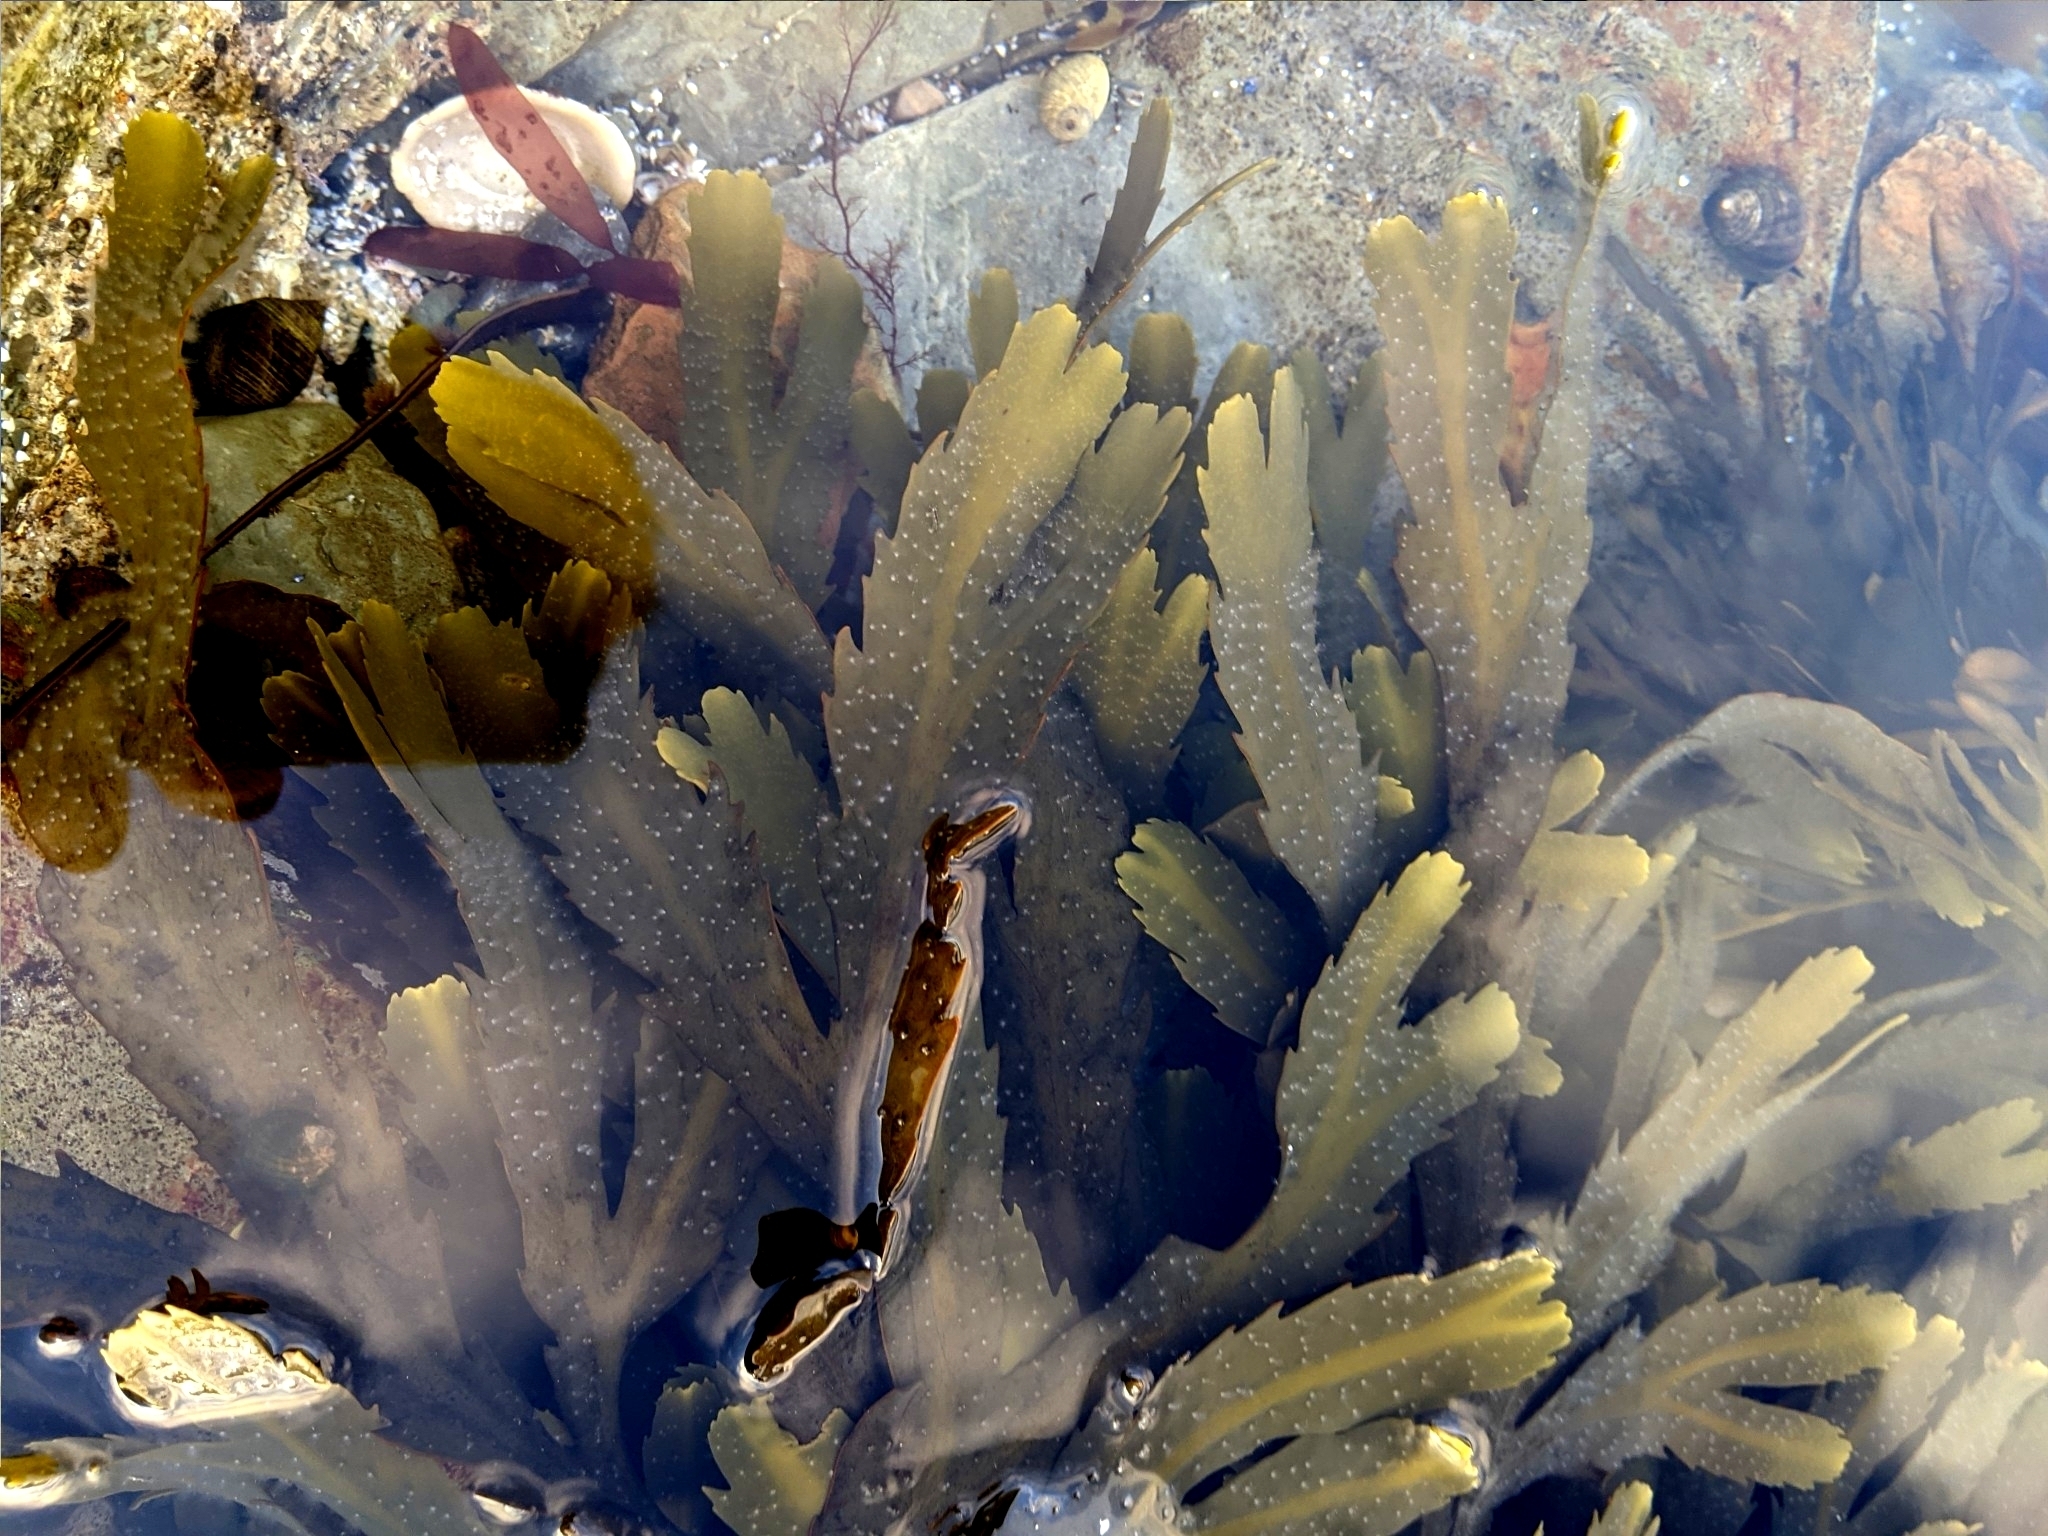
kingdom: Chromista
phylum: Ochrophyta
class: Phaeophyceae
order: Fucales
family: Fucaceae
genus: Fucus
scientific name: Fucus serratus
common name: Toothed wrack
